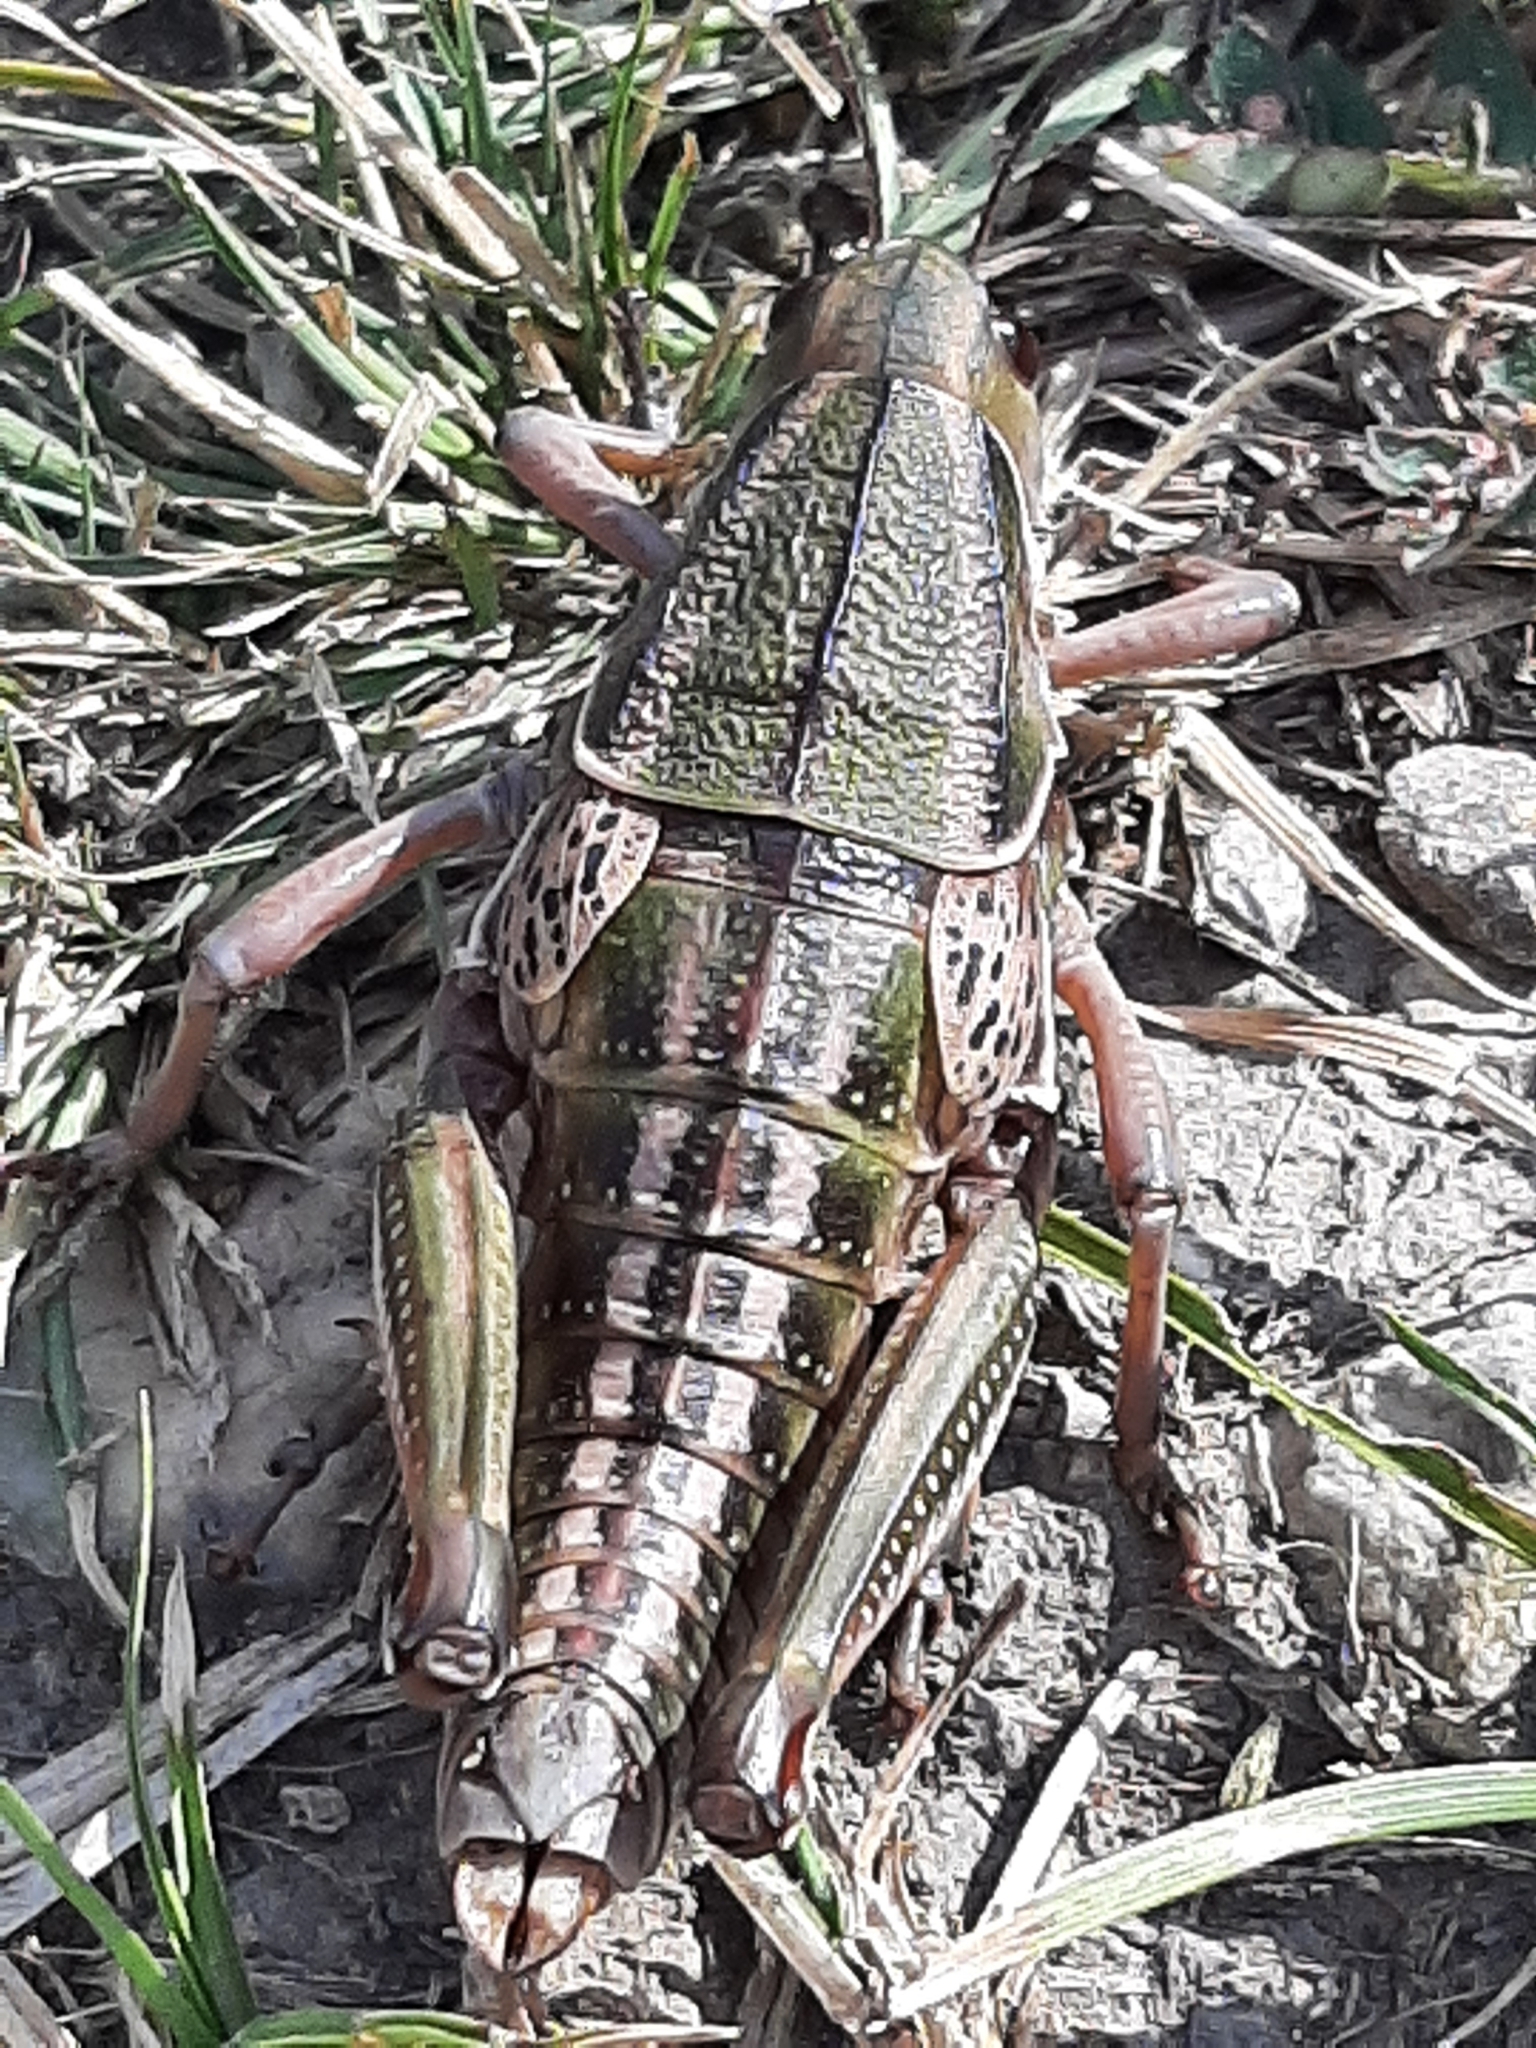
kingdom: Animalia
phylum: Arthropoda
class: Insecta
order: Orthoptera
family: Romaleidae
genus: Brachystola
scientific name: Brachystola magna
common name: Plains lubber grasshopper
